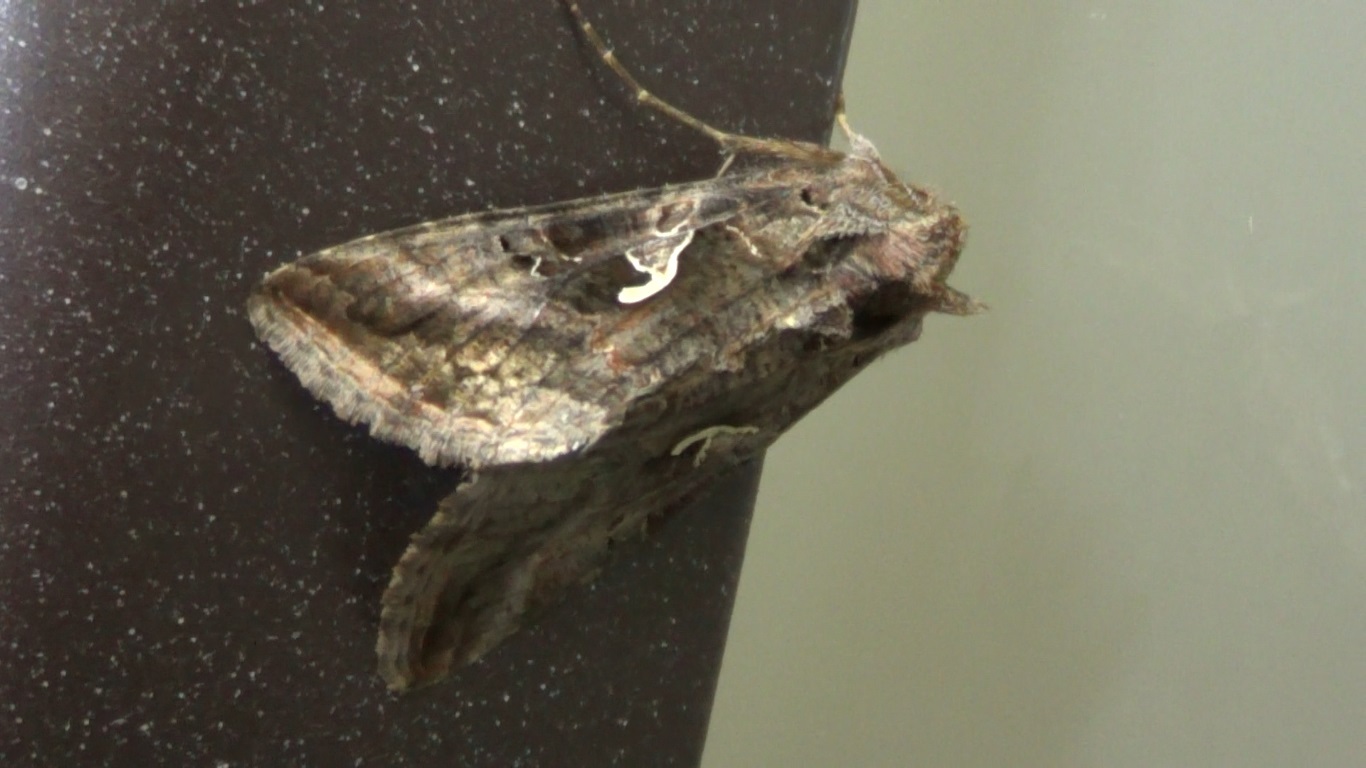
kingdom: Animalia
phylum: Arthropoda
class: Insecta
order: Lepidoptera
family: Noctuidae
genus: Autographa
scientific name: Autographa gamma
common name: Silver y
